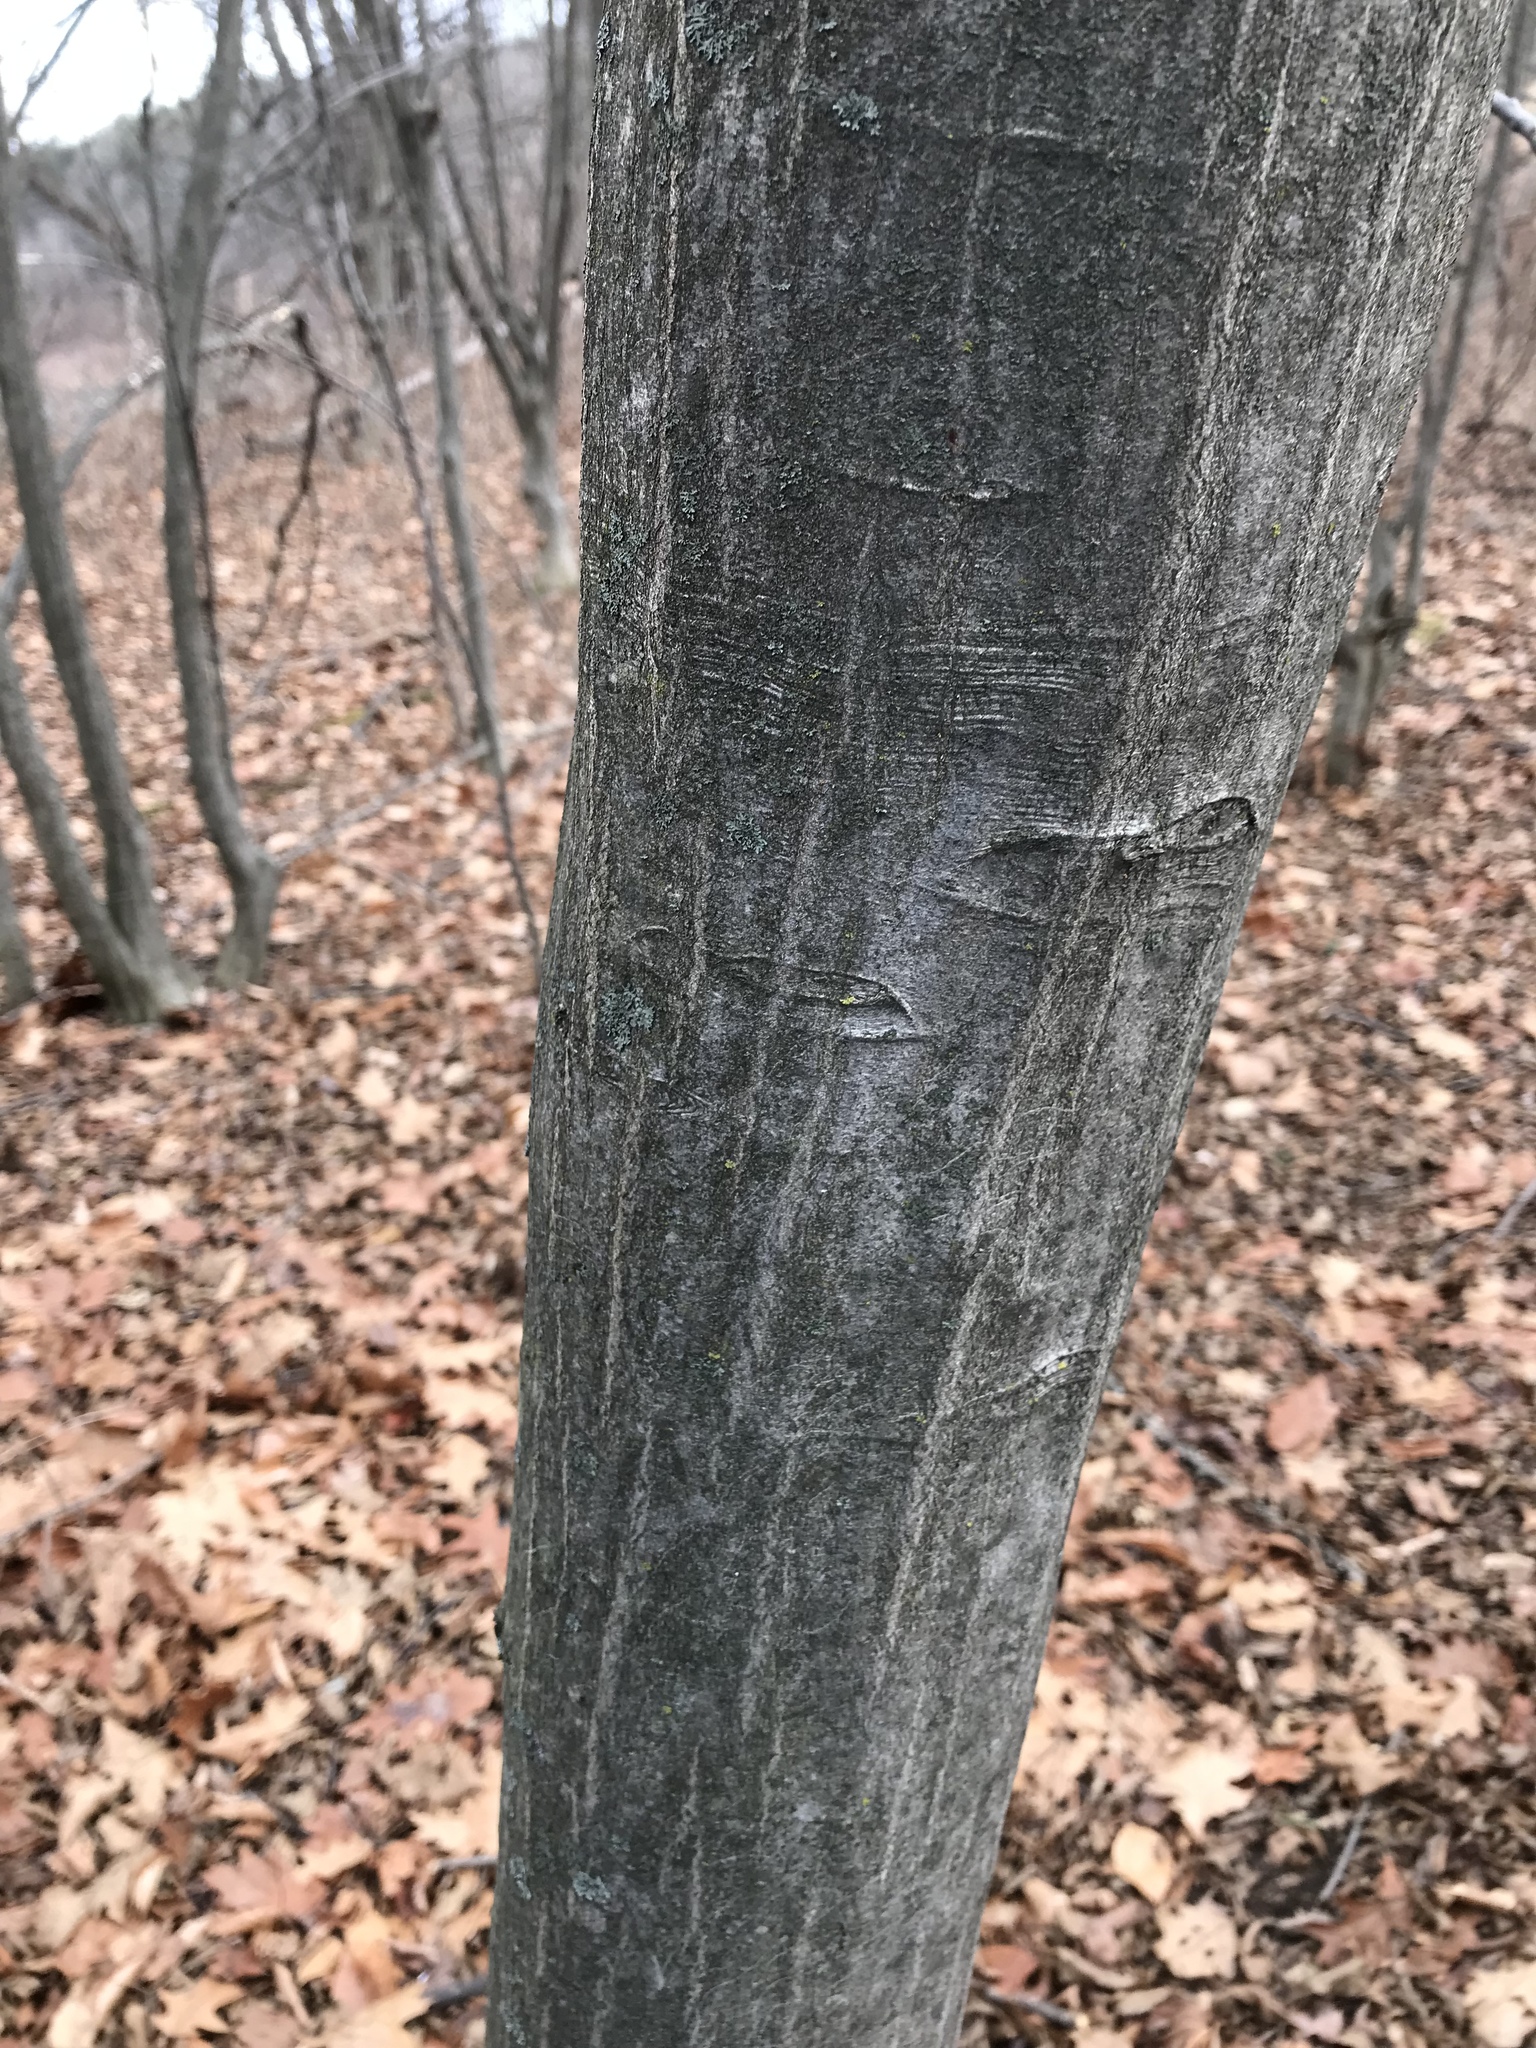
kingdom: Plantae
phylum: Tracheophyta
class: Magnoliopsida
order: Fagales
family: Betulaceae
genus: Carpinus
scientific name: Carpinus caroliniana
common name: American hornbeam
